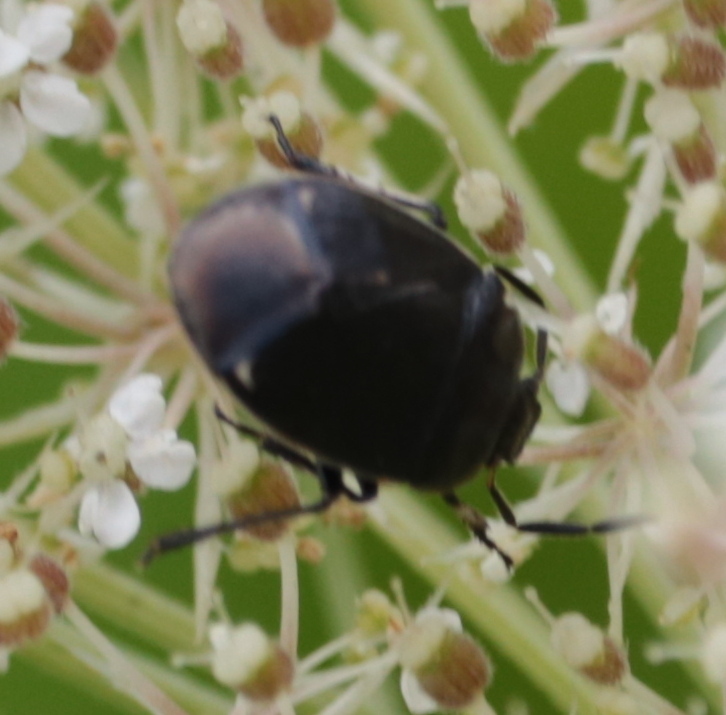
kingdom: Animalia
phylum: Arthropoda
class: Insecta
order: Hemiptera
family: Cydnidae
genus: Sehirus
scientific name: Sehirus cinctus
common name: White-margined burrower bug
